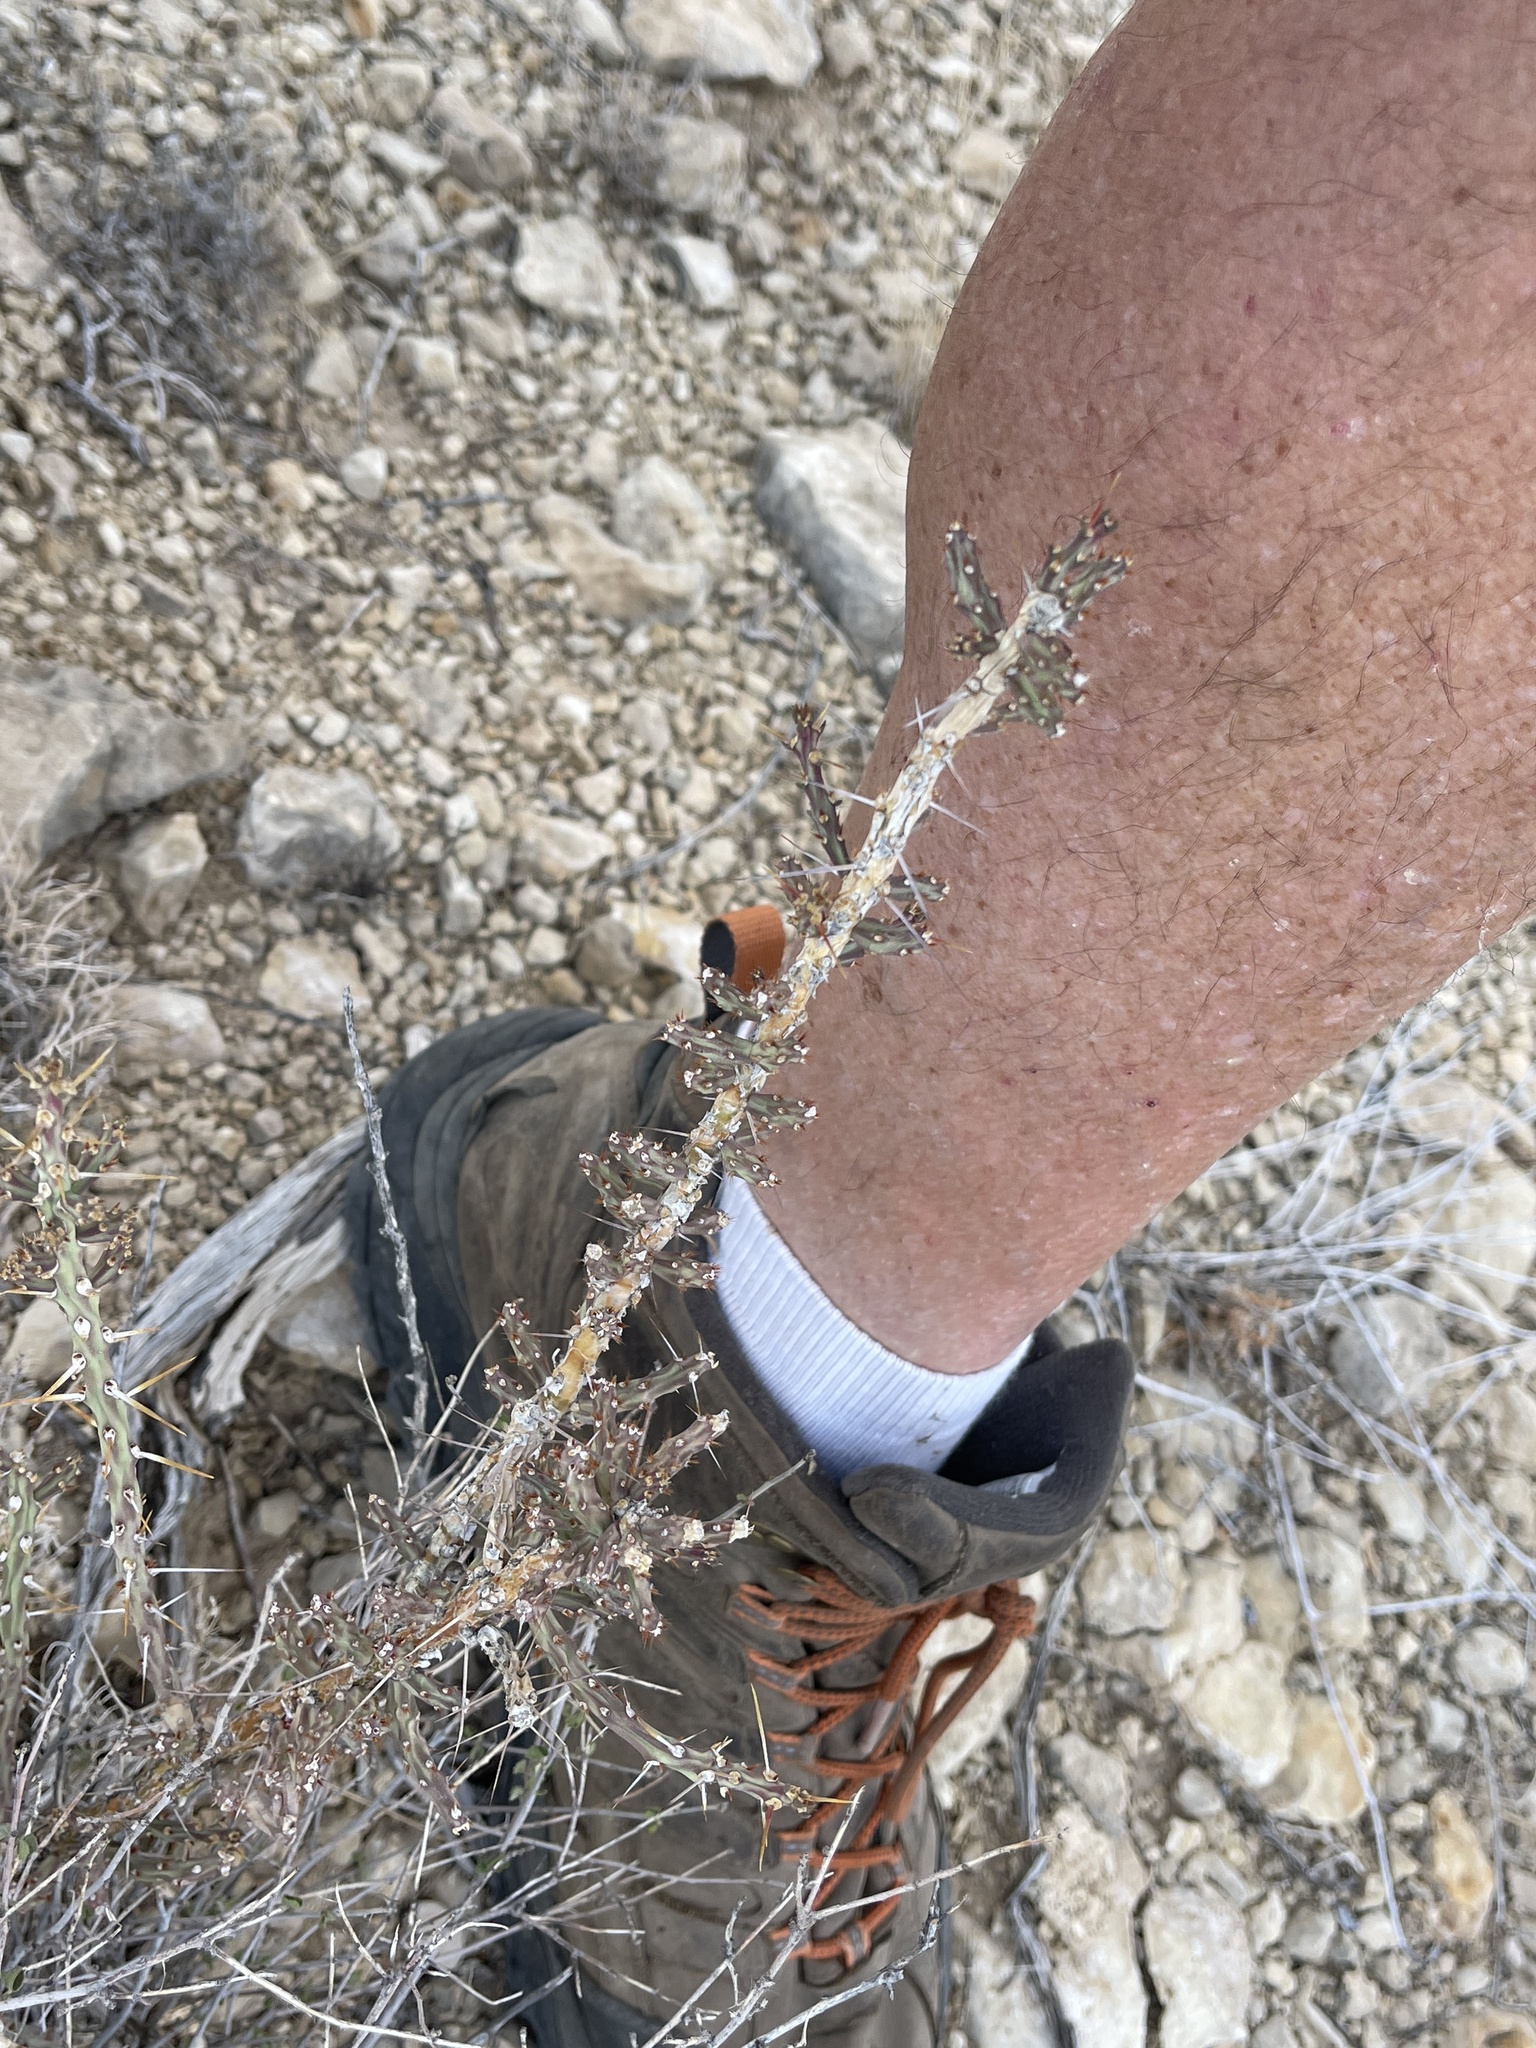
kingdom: Plantae
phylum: Tracheophyta
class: Magnoliopsida
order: Caryophyllales
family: Cactaceae
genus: Cylindropuntia
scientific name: Cylindropuntia leptocaulis
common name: Christmas cactus
